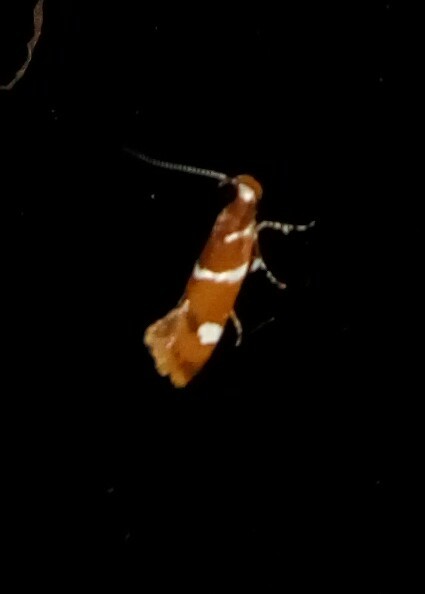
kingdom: Animalia
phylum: Arthropoda
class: Insecta
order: Lepidoptera
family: Oecophoridae
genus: Promalactis
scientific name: Promalactis suzukiella
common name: Moth
